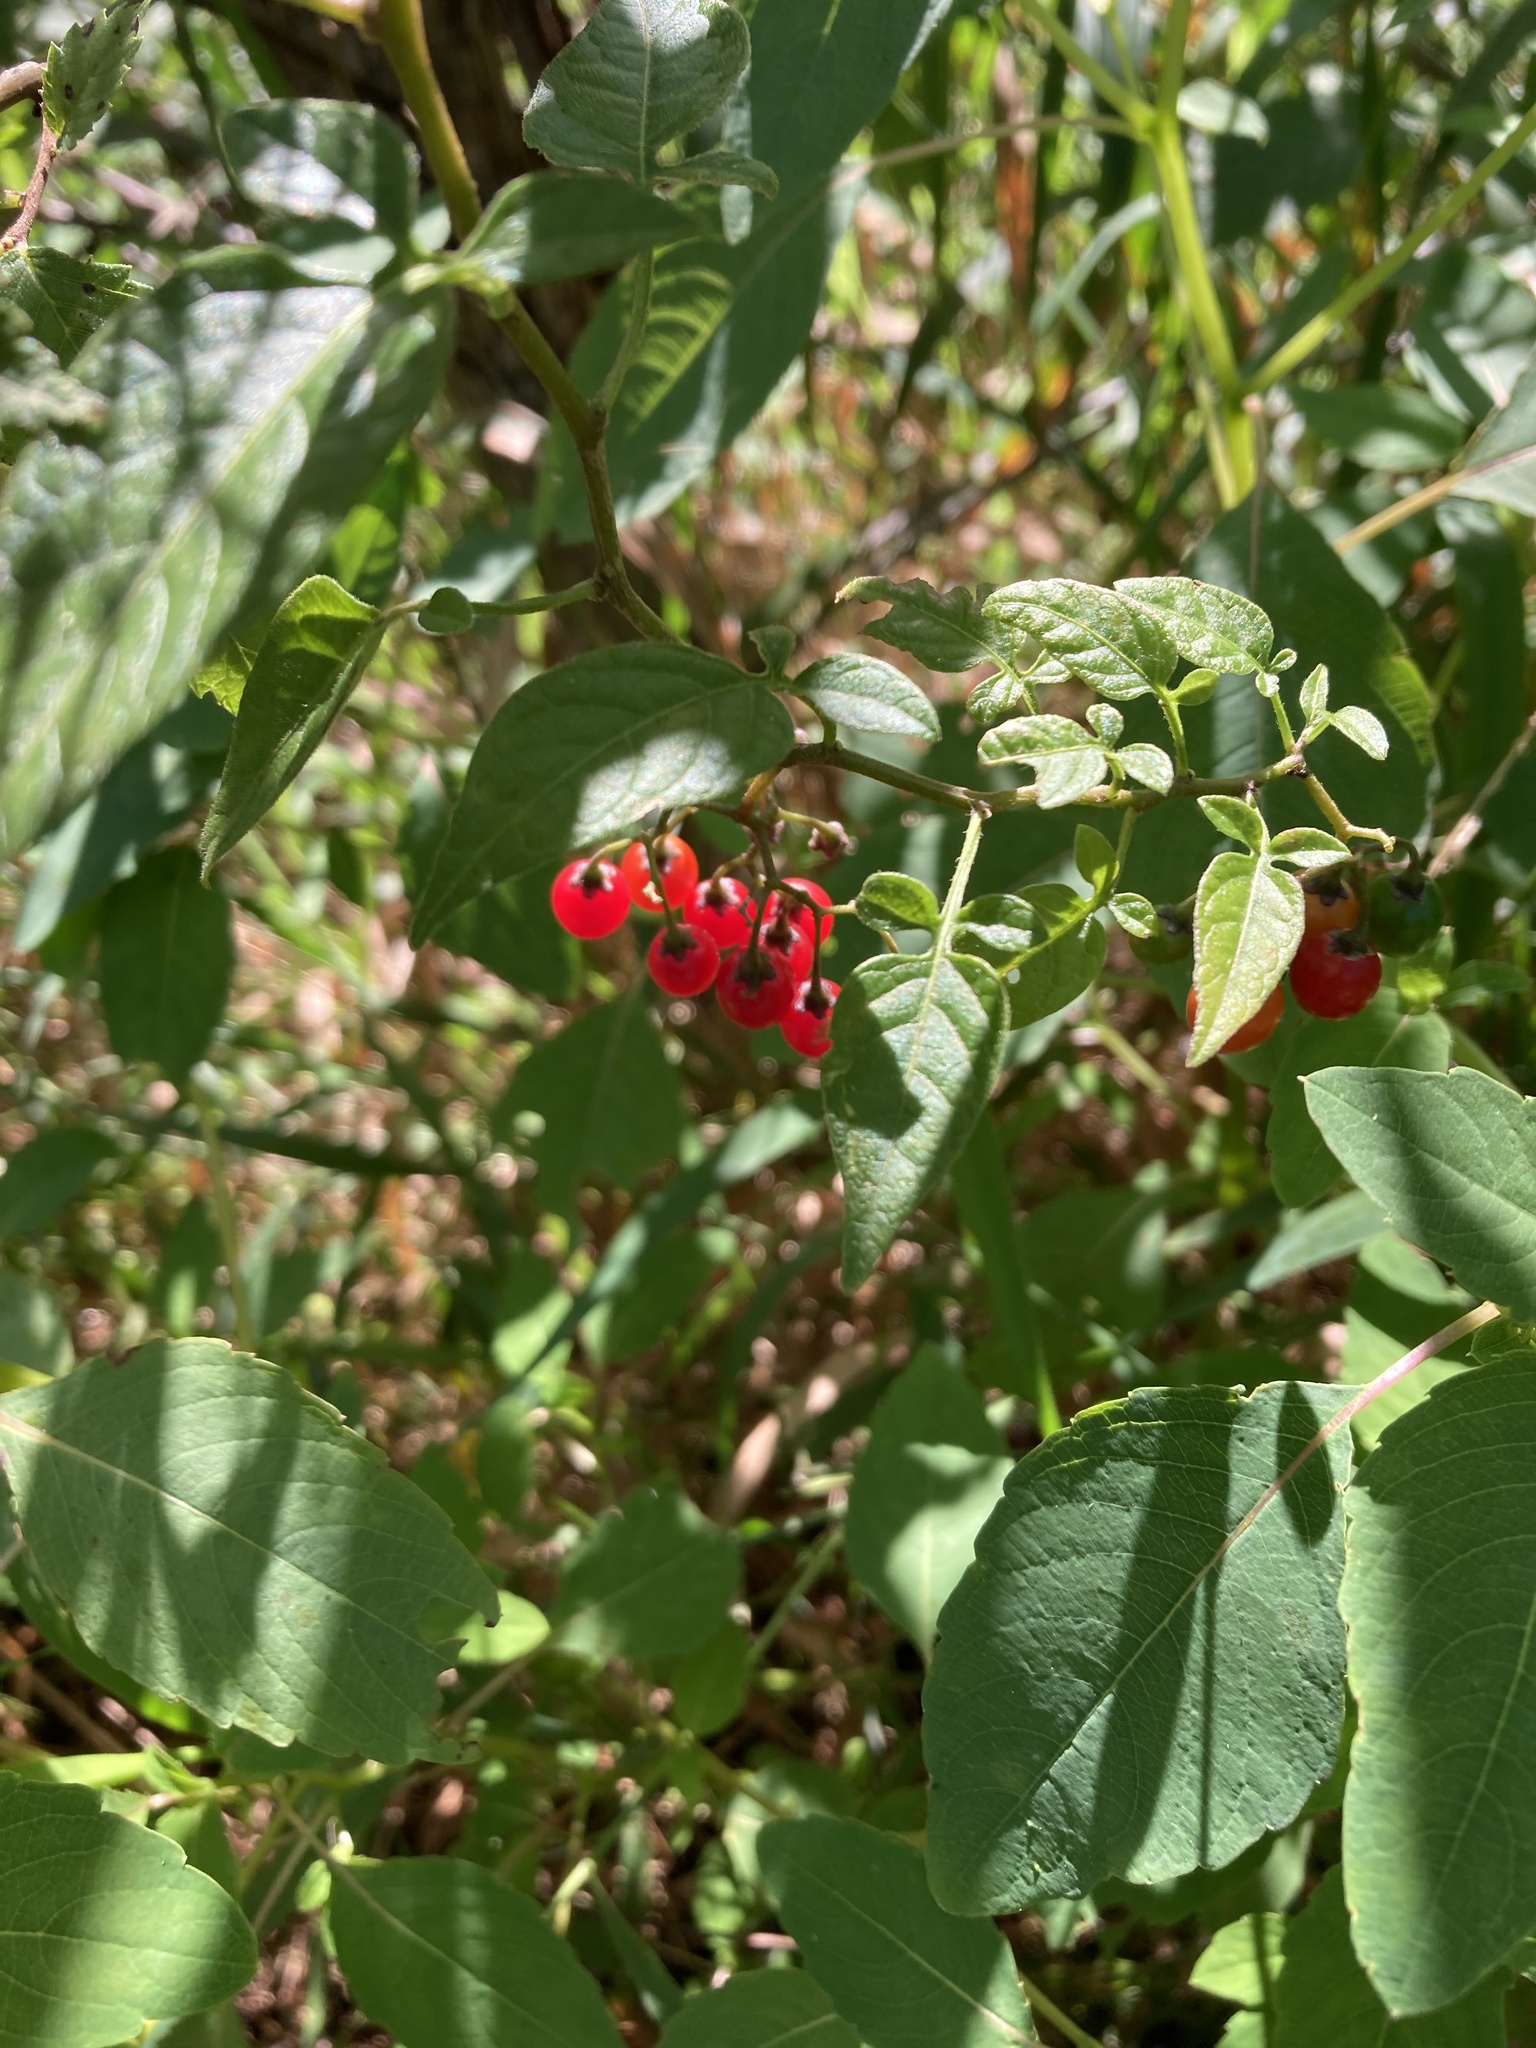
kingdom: Plantae
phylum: Tracheophyta
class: Magnoliopsida
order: Solanales
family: Solanaceae
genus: Solanum
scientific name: Solanum dulcamara
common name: Climbing nightshade
